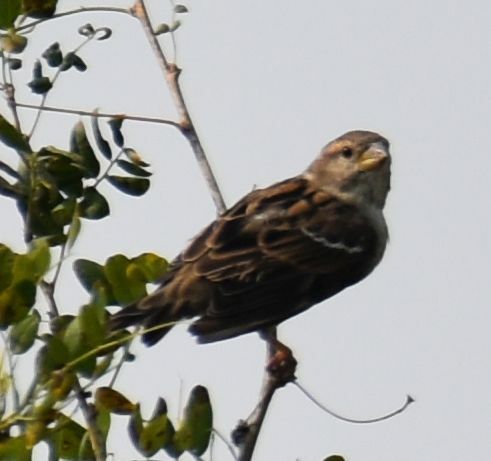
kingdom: Animalia
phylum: Chordata
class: Aves
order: Passeriformes
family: Passeridae
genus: Passer
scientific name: Passer domesticus
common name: House sparrow
